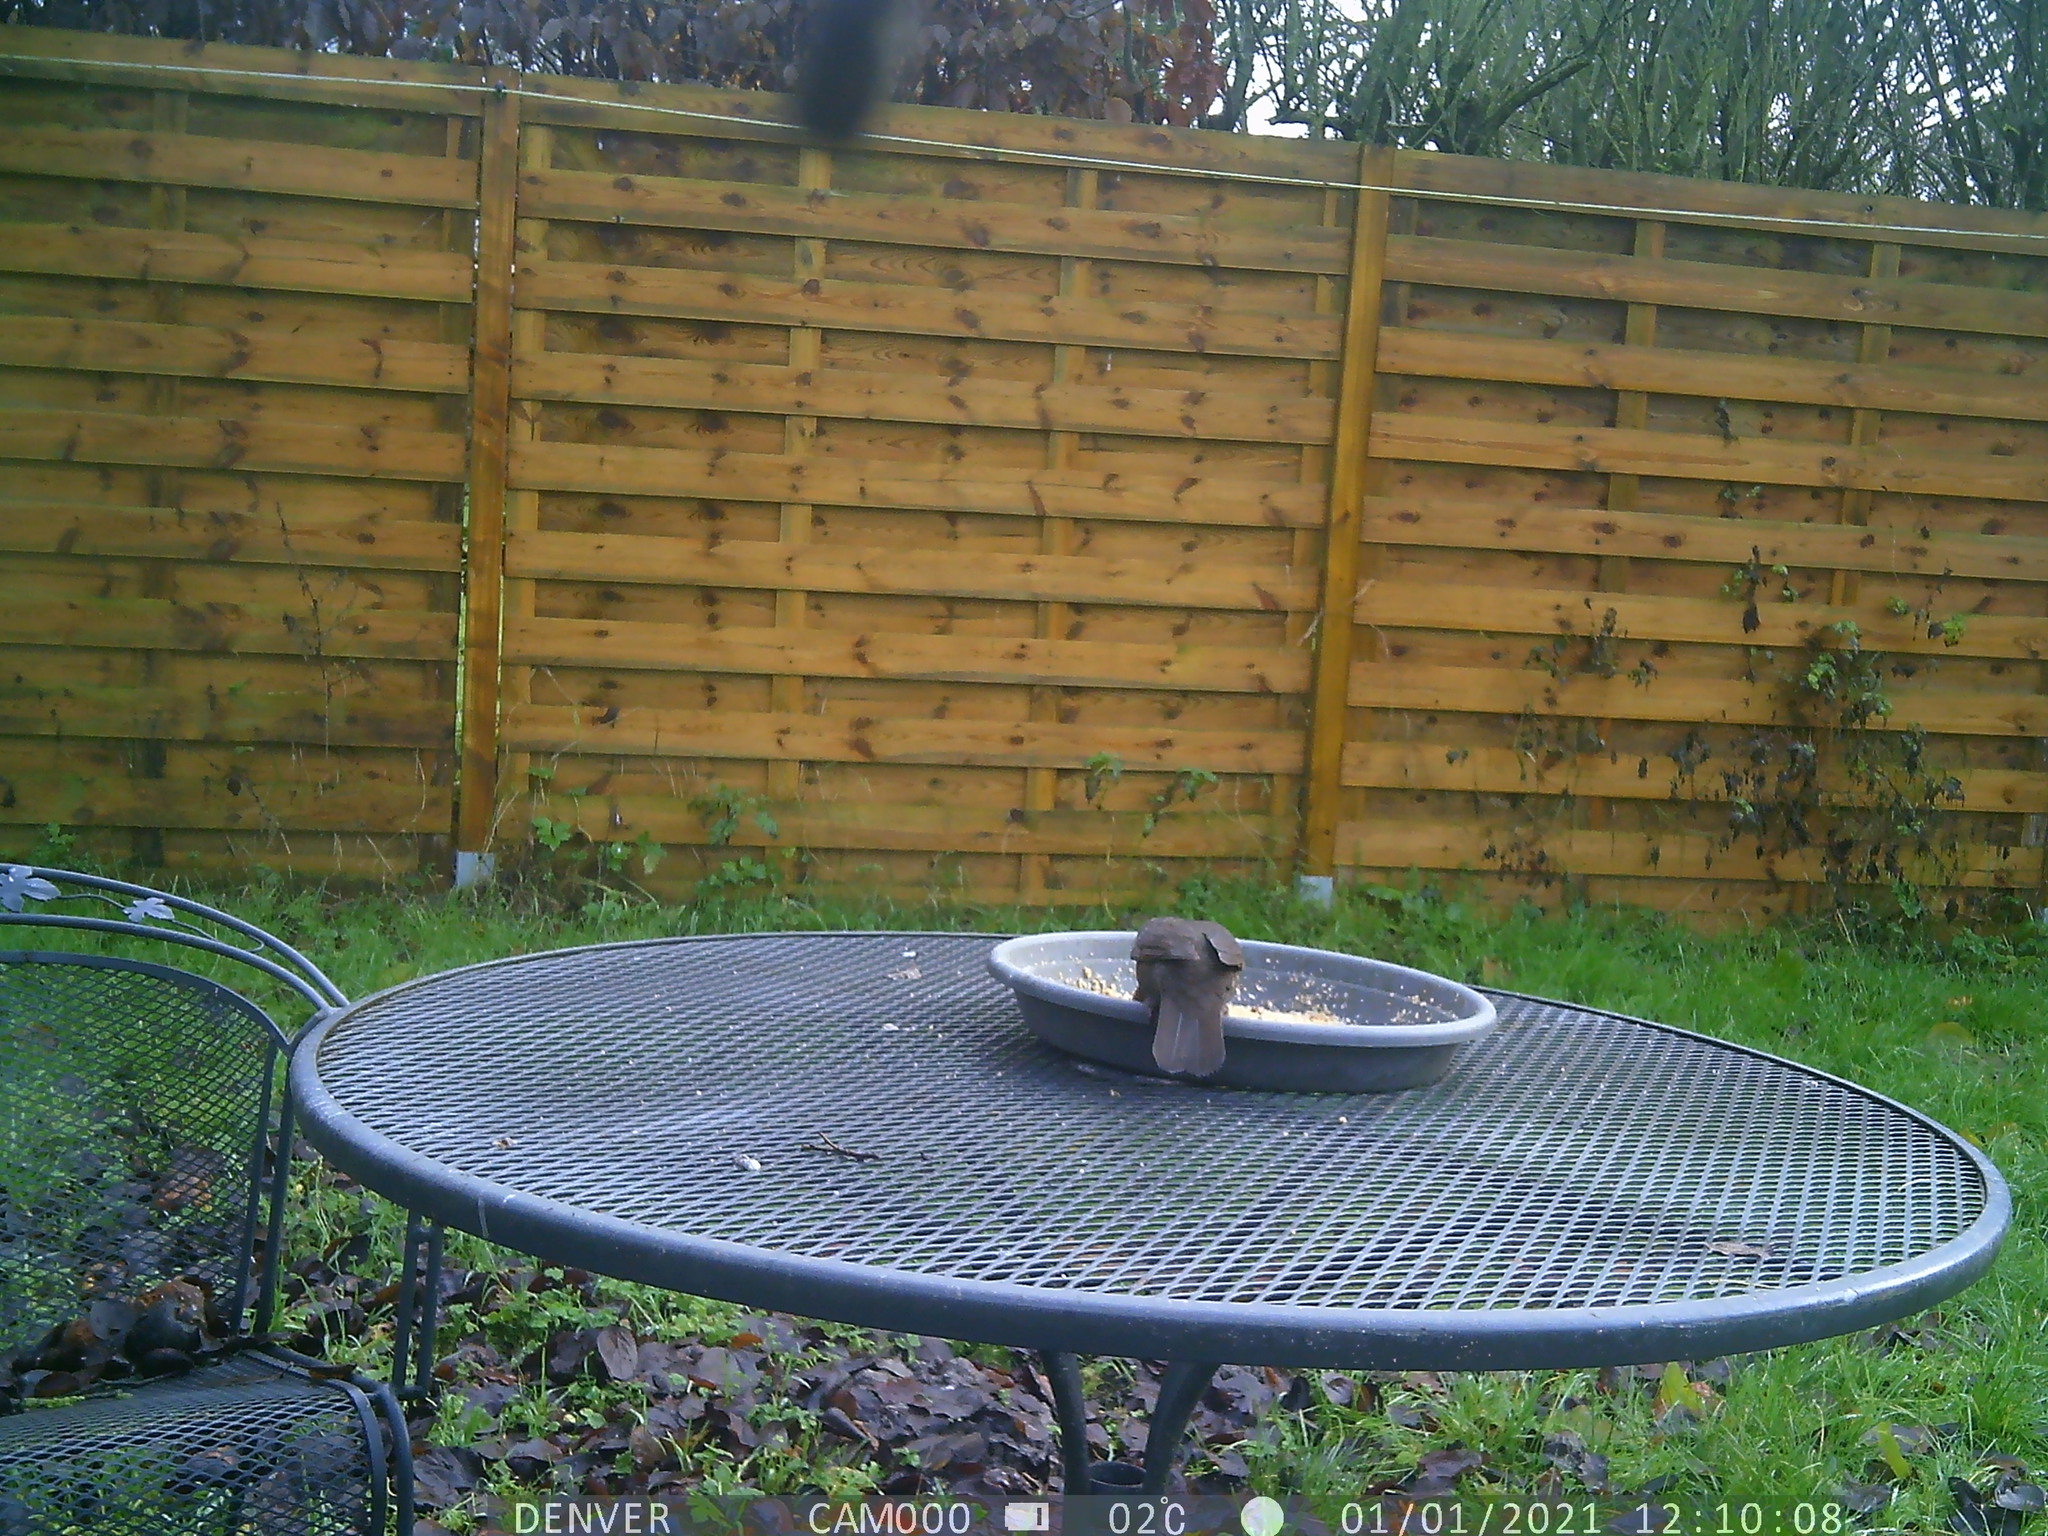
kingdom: Animalia
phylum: Chordata
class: Aves
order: Passeriformes
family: Turdidae
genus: Turdus
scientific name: Turdus merula
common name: Common blackbird
